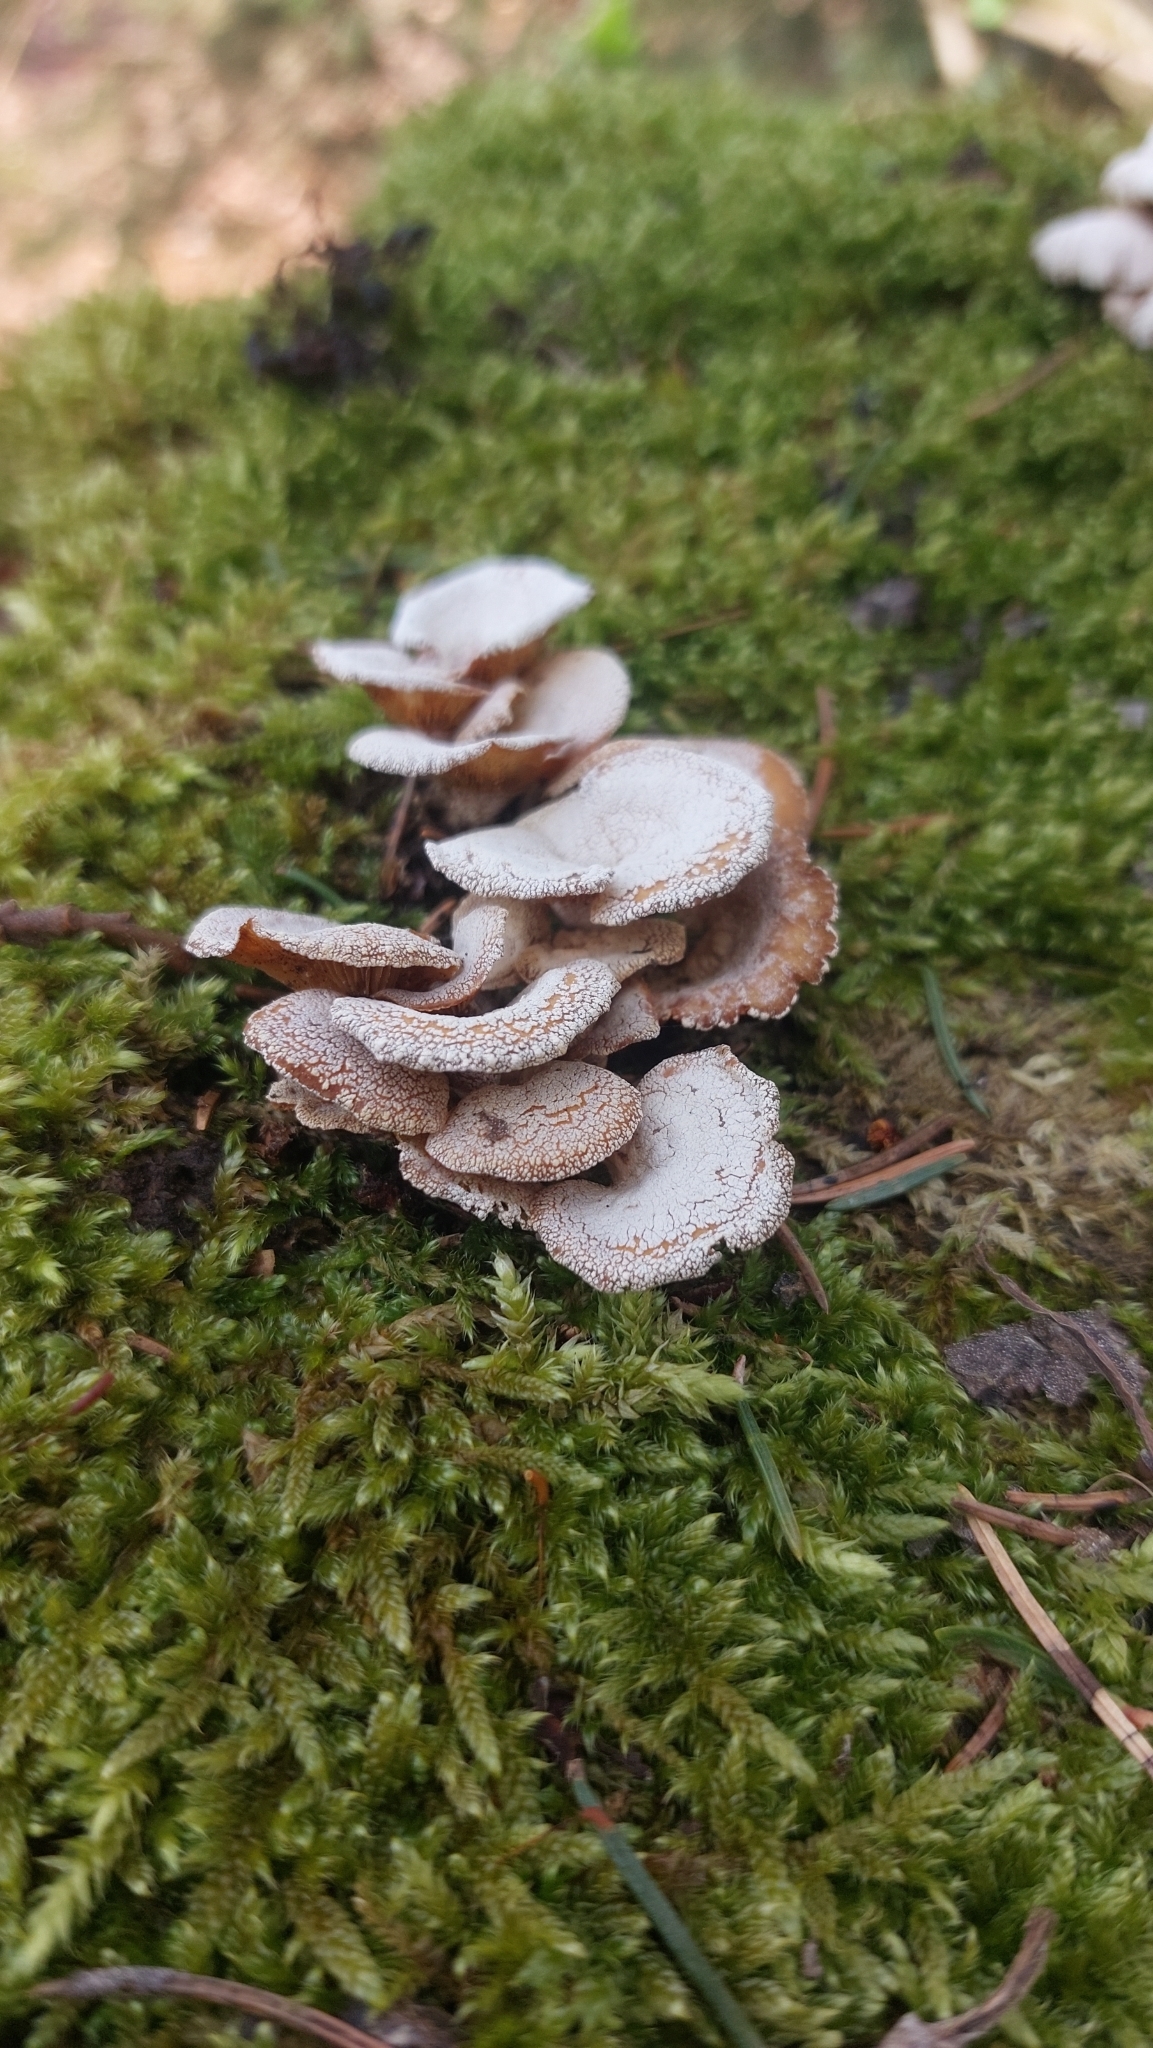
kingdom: Fungi
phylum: Basidiomycota
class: Agaricomycetes
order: Agaricales
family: Mycenaceae
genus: Panellus
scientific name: Panellus stipticus
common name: Bitter oysterling
